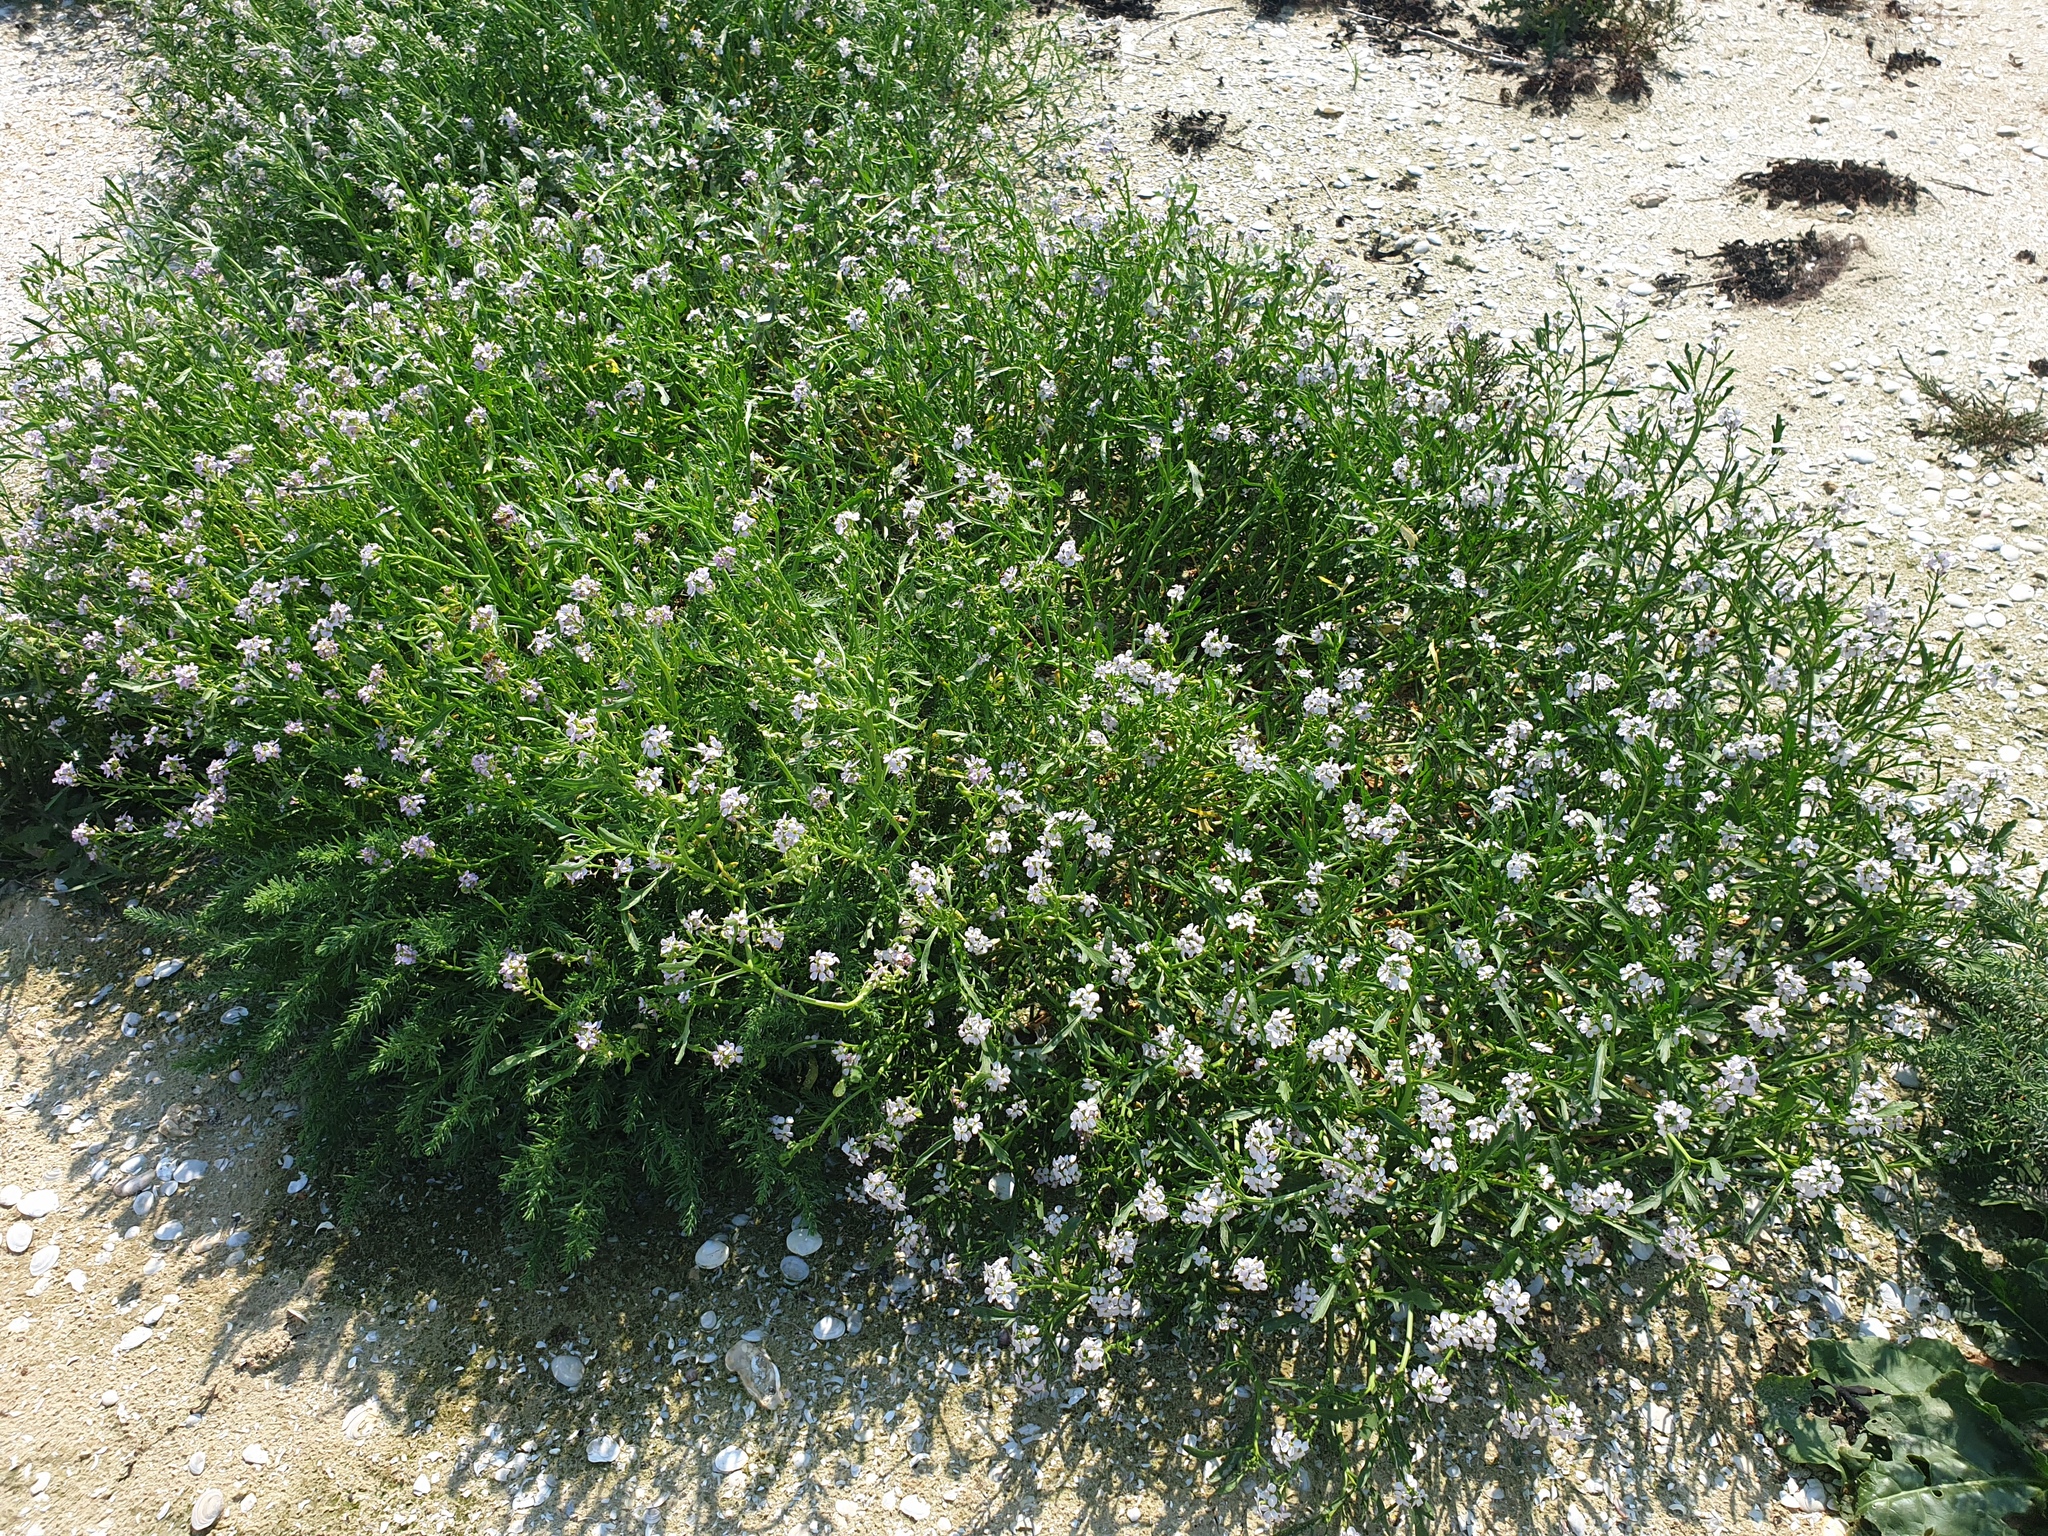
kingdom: Plantae
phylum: Tracheophyta
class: Magnoliopsida
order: Brassicales
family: Brassicaceae
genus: Cakile
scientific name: Cakile maritima
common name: Sea rocket
